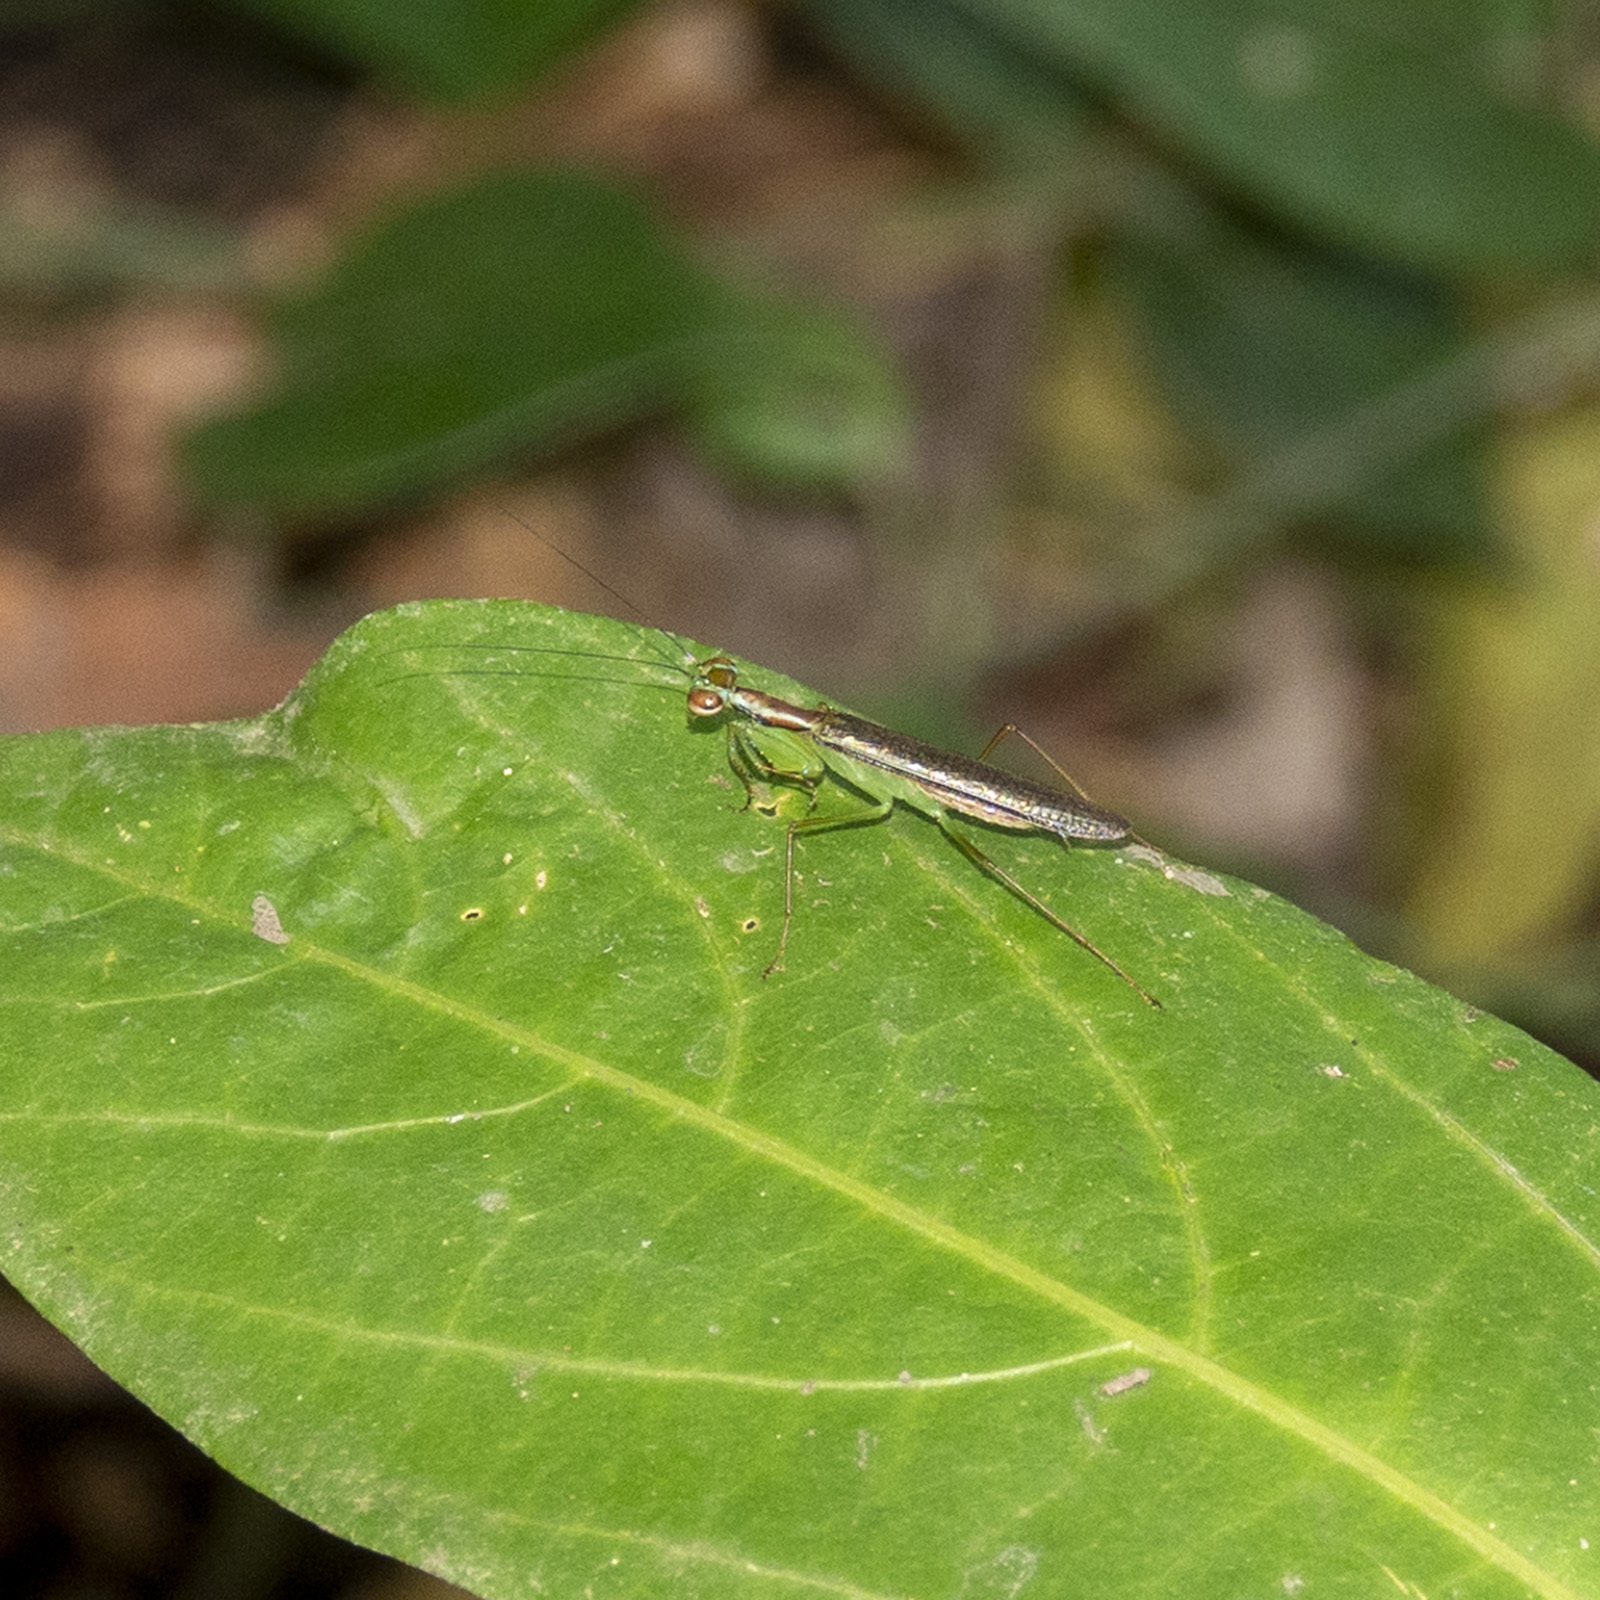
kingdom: Animalia
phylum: Arthropoda
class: Insecta
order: Mantodea
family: Gonypetidae
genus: Hapalopeza
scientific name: Hapalopeza nilgirica
